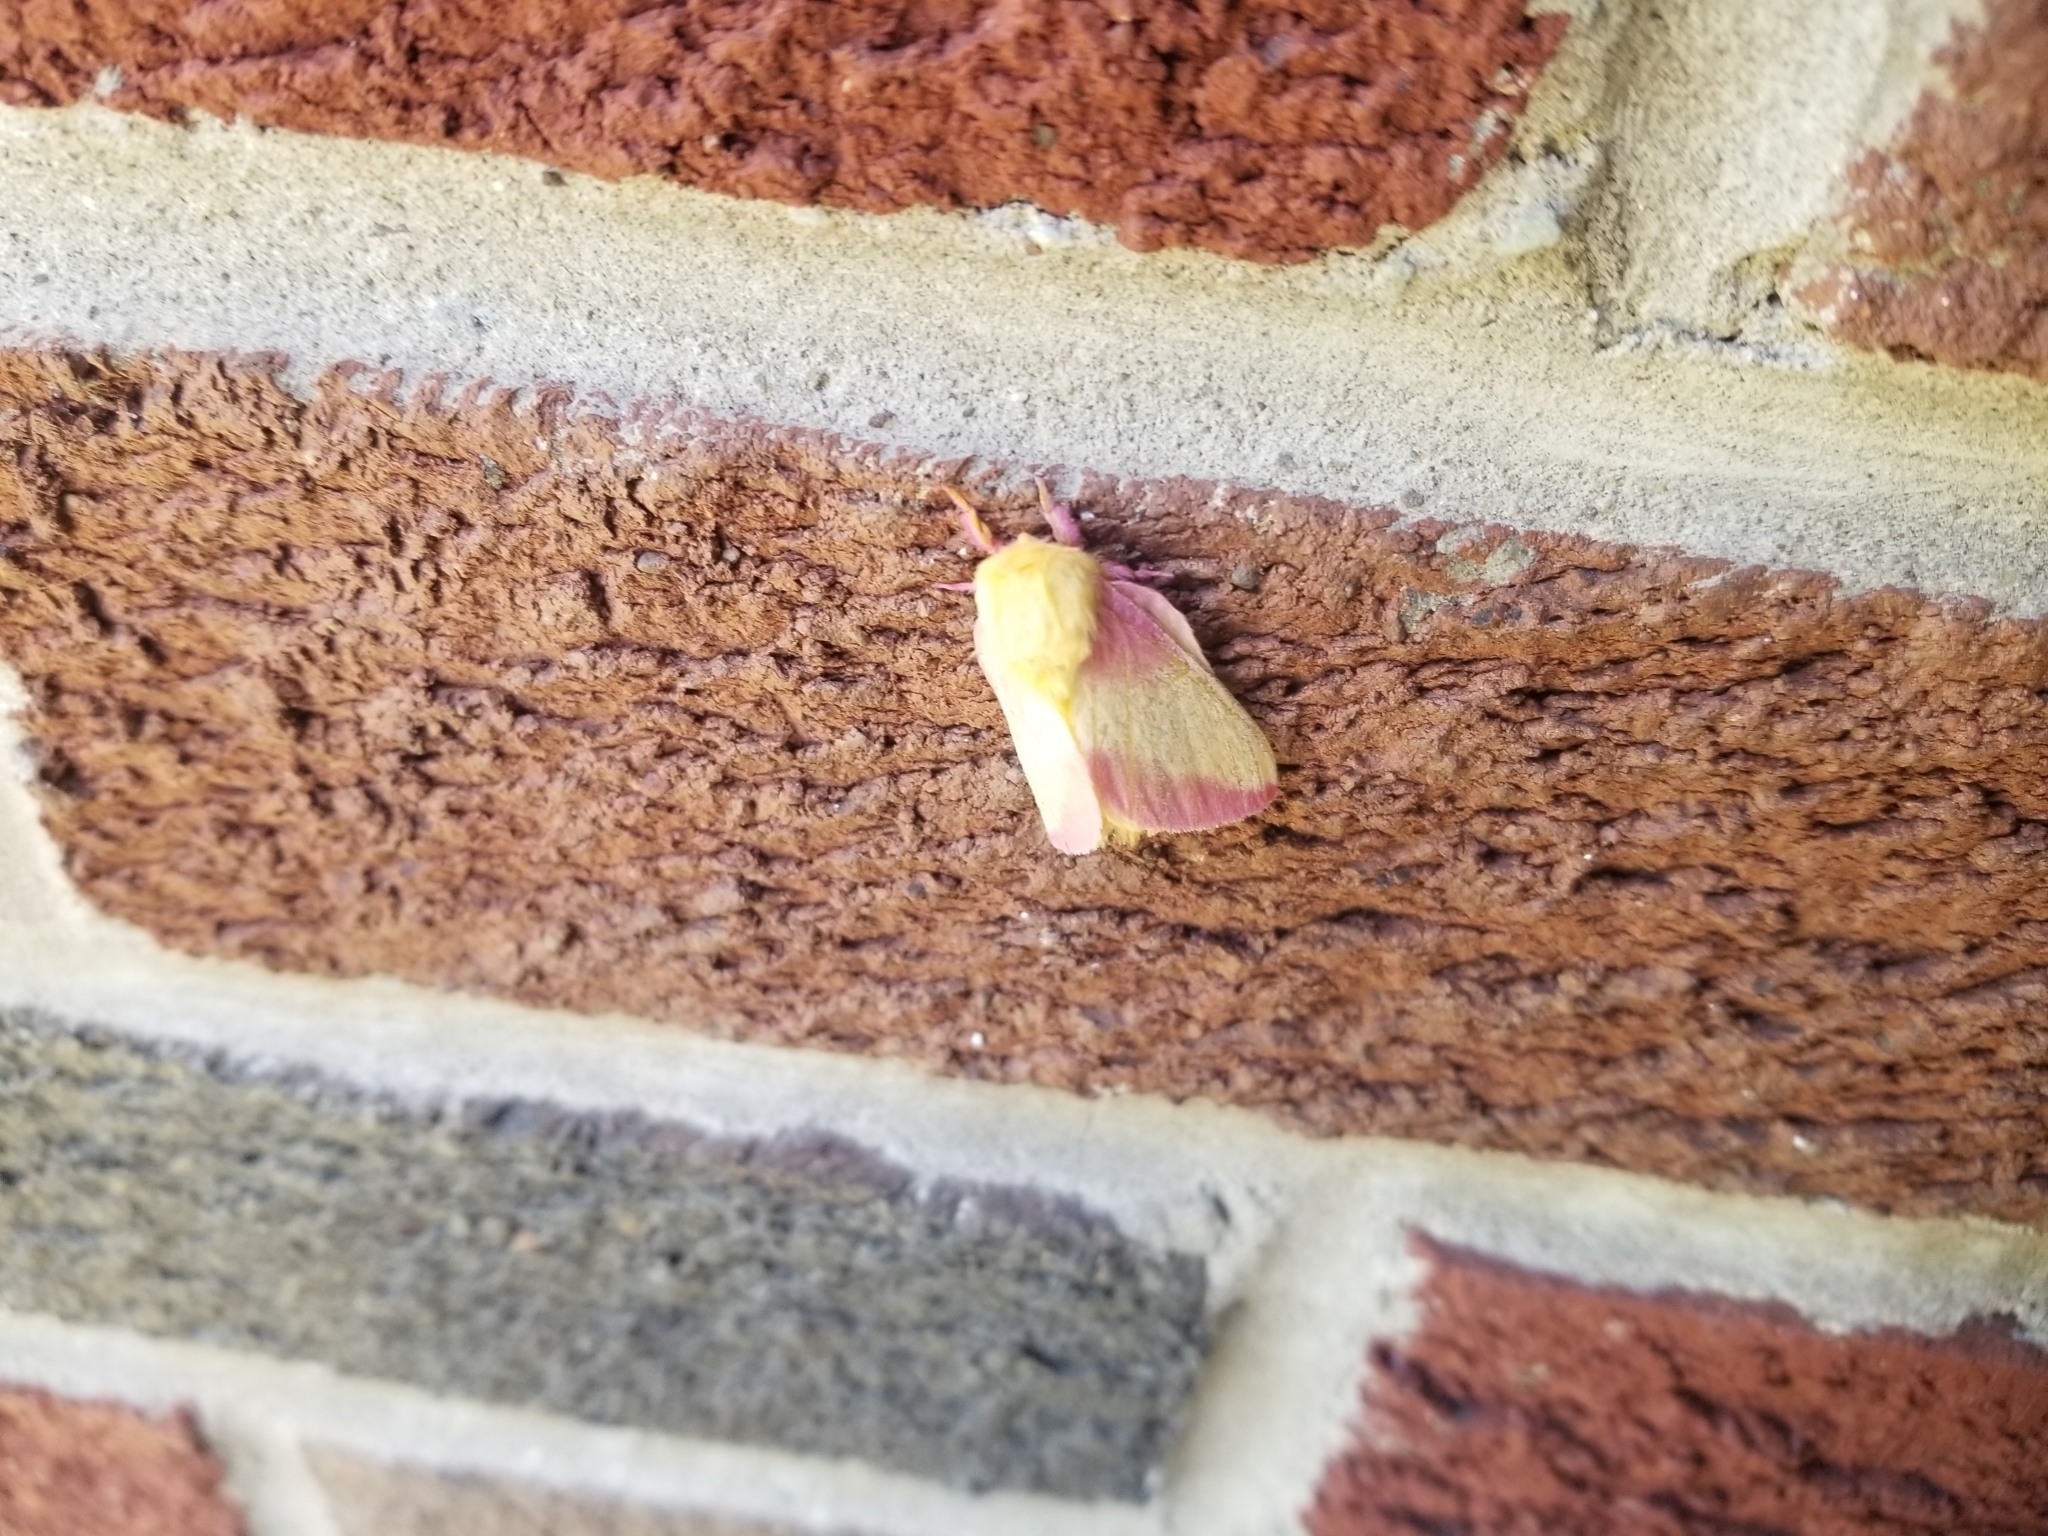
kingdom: Animalia
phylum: Arthropoda
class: Insecta
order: Lepidoptera
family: Saturniidae
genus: Dryocampa
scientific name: Dryocampa rubicunda
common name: Rosy maple moth
